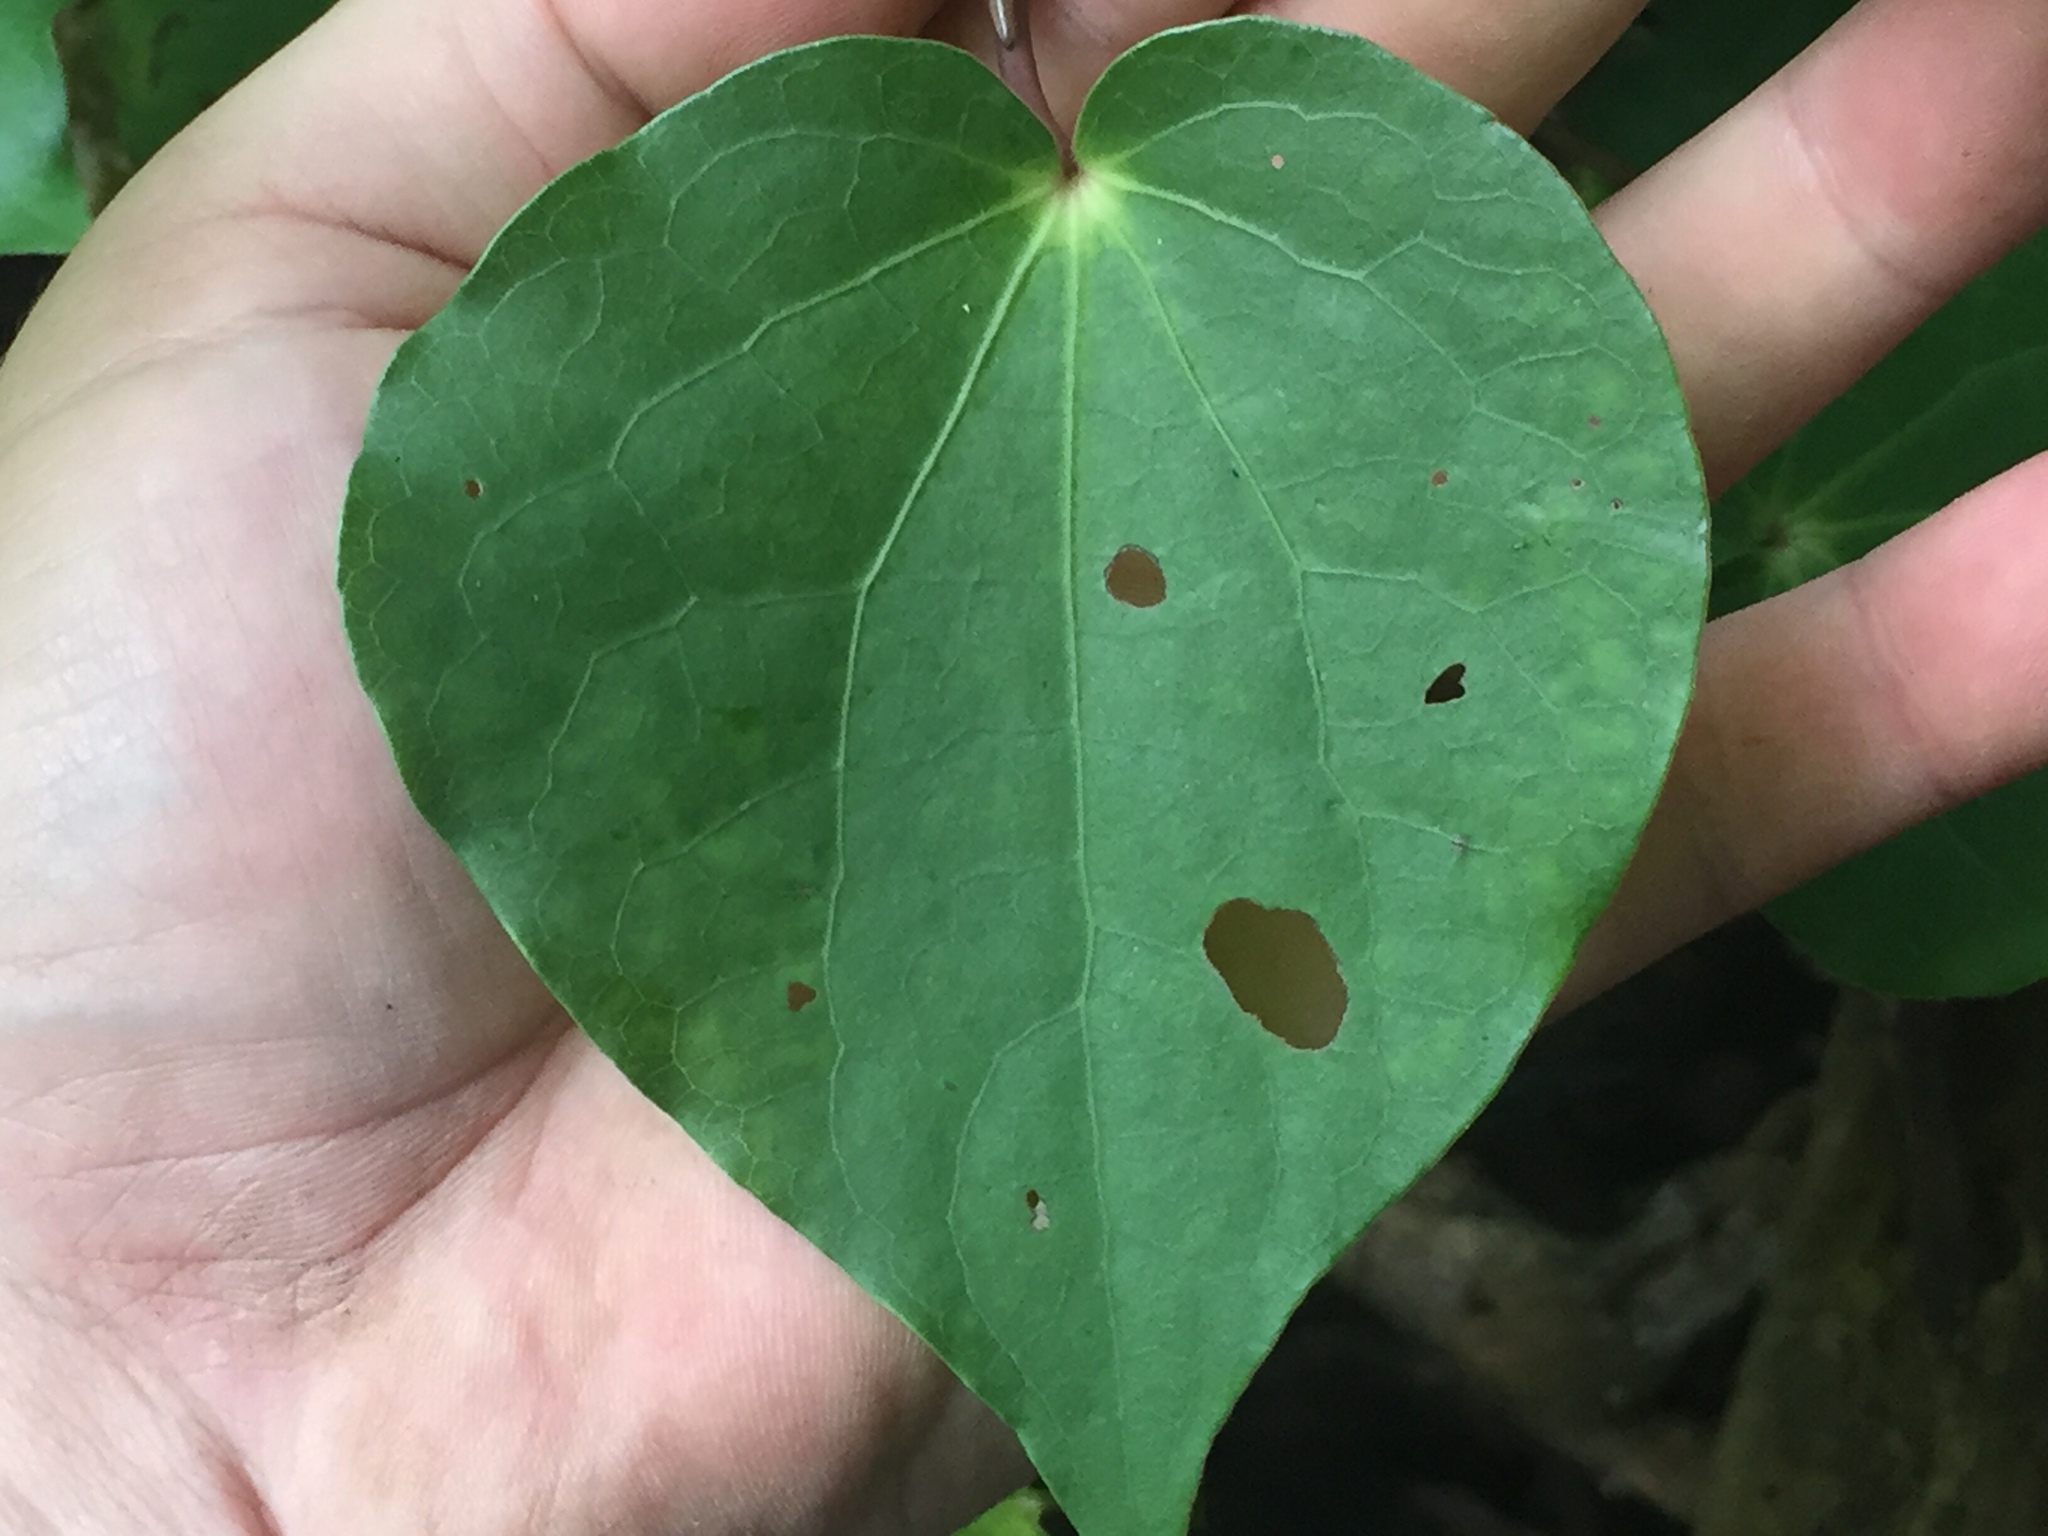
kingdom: Plantae
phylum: Tracheophyta
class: Magnoliopsida
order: Piperales
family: Piperaceae
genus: Macropiper
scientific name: Macropiper excelsum
